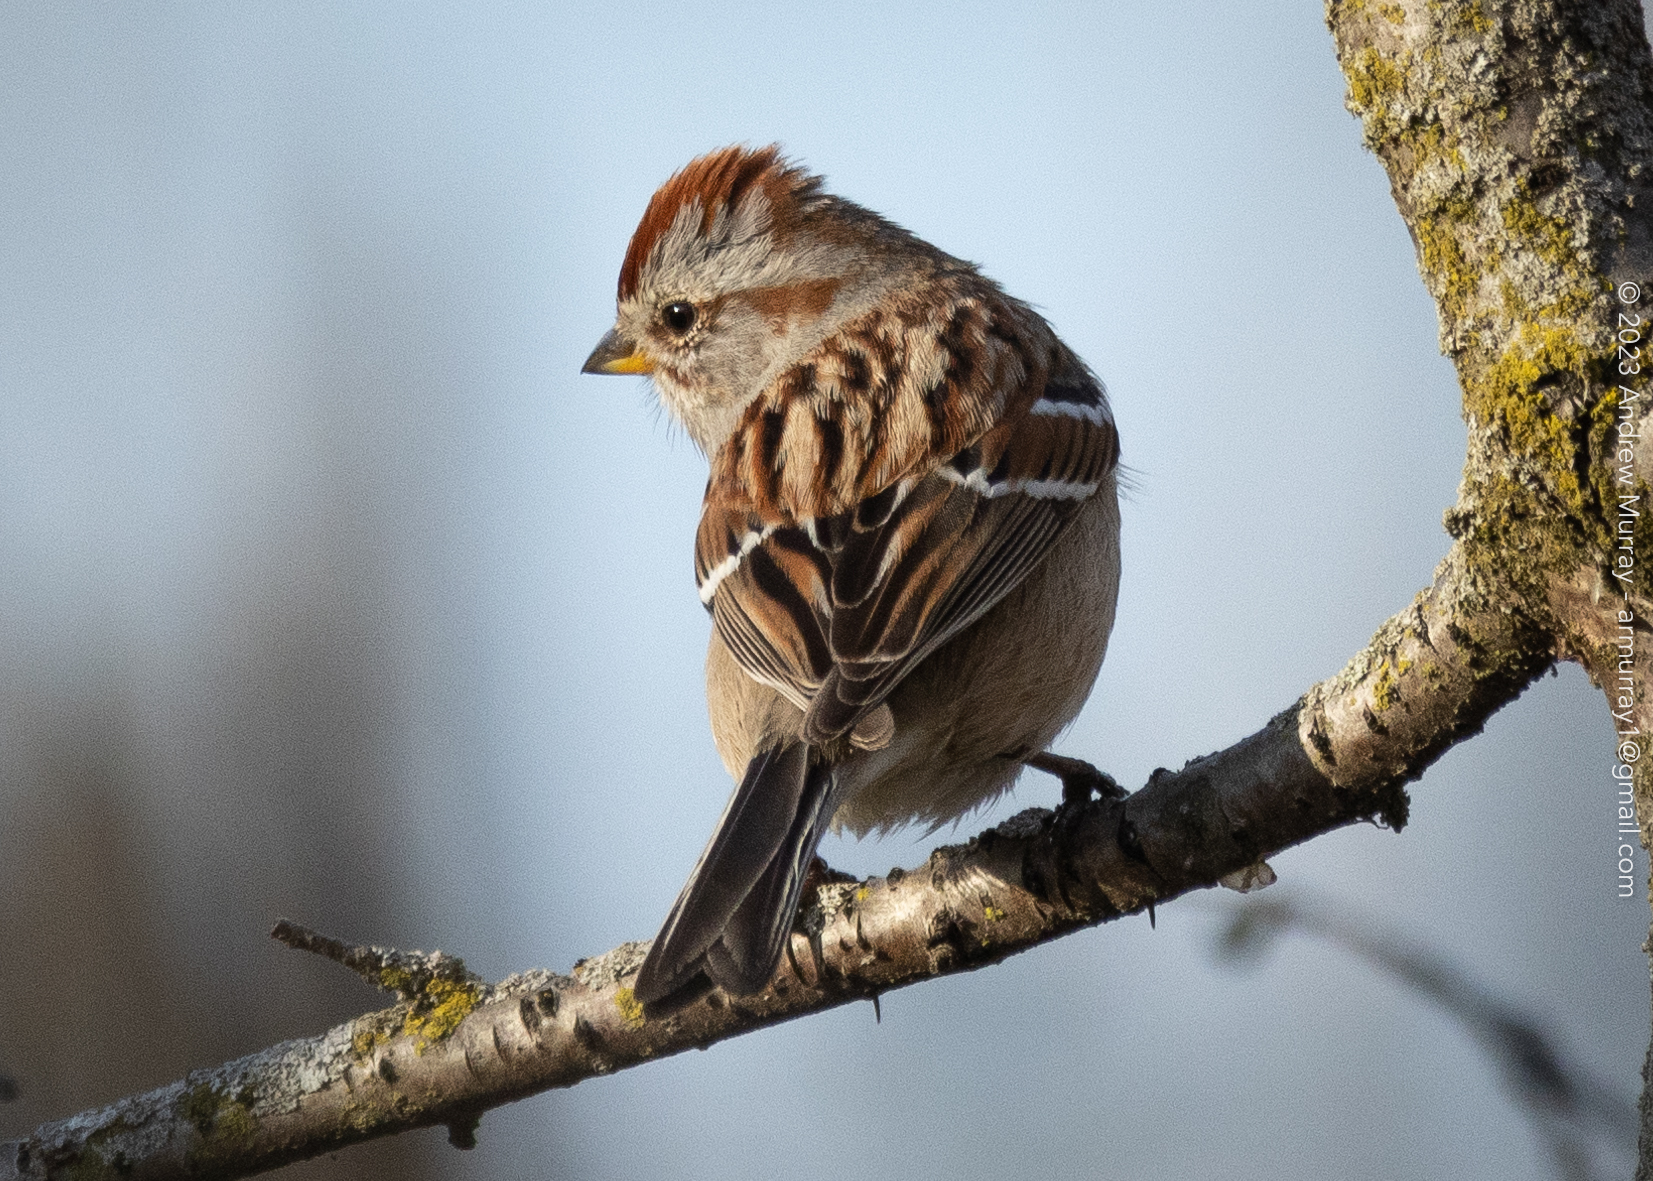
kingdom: Animalia
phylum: Chordata
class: Aves
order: Passeriformes
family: Passerellidae
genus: Spizelloides
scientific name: Spizelloides arborea
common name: American tree sparrow
